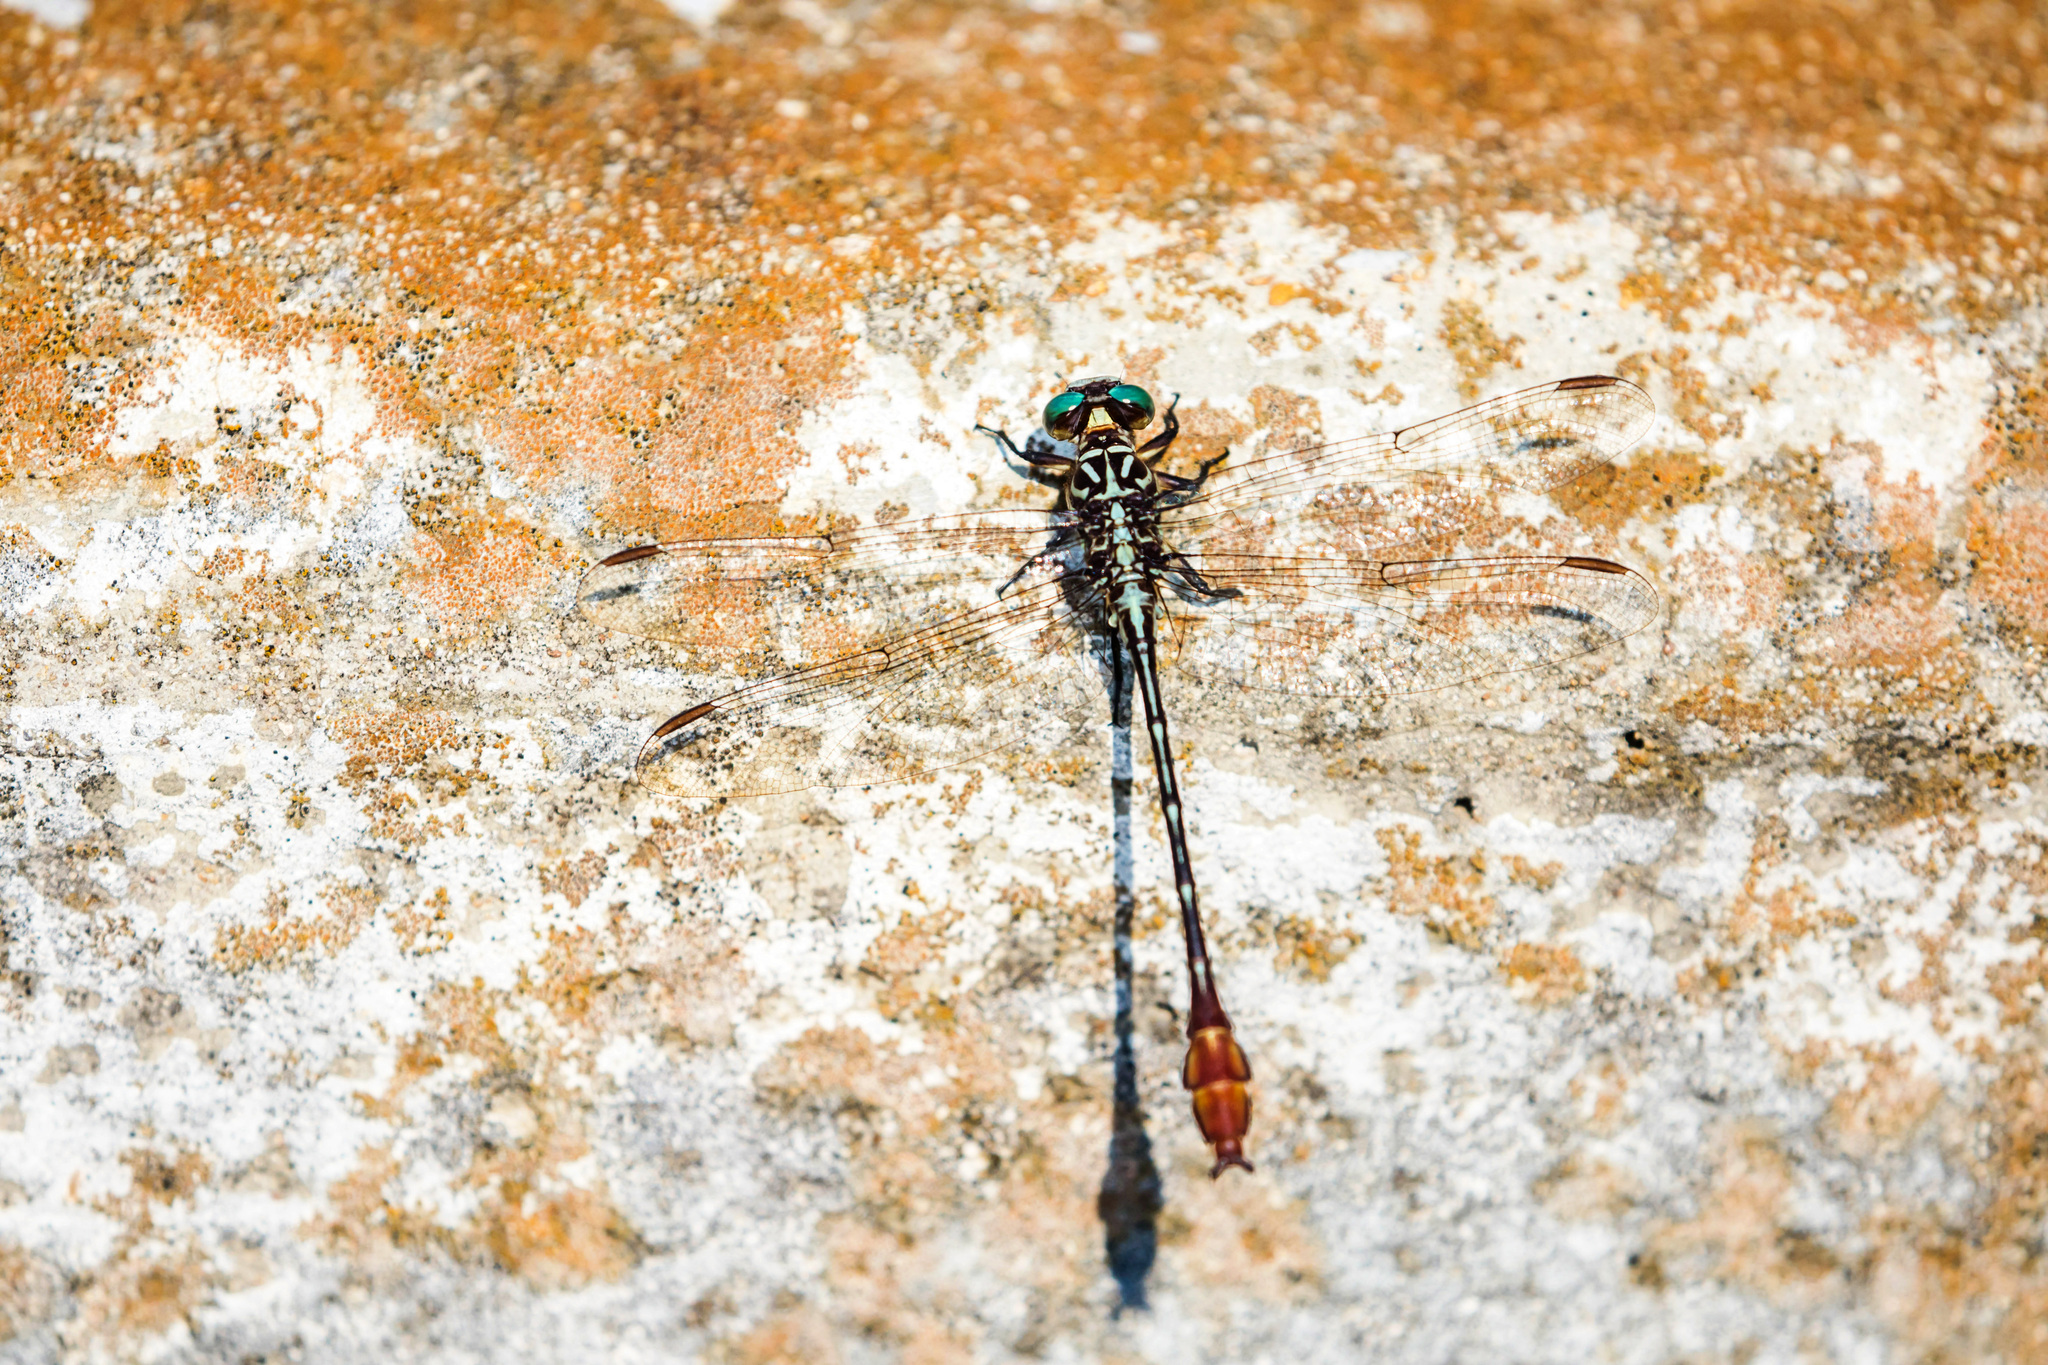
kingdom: Animalia
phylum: Arthropoda
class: Insecta
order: Odonata
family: Gomphidae
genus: Stylurus
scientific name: Stylurus plagiatus
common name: Russet-tipped clubtail
